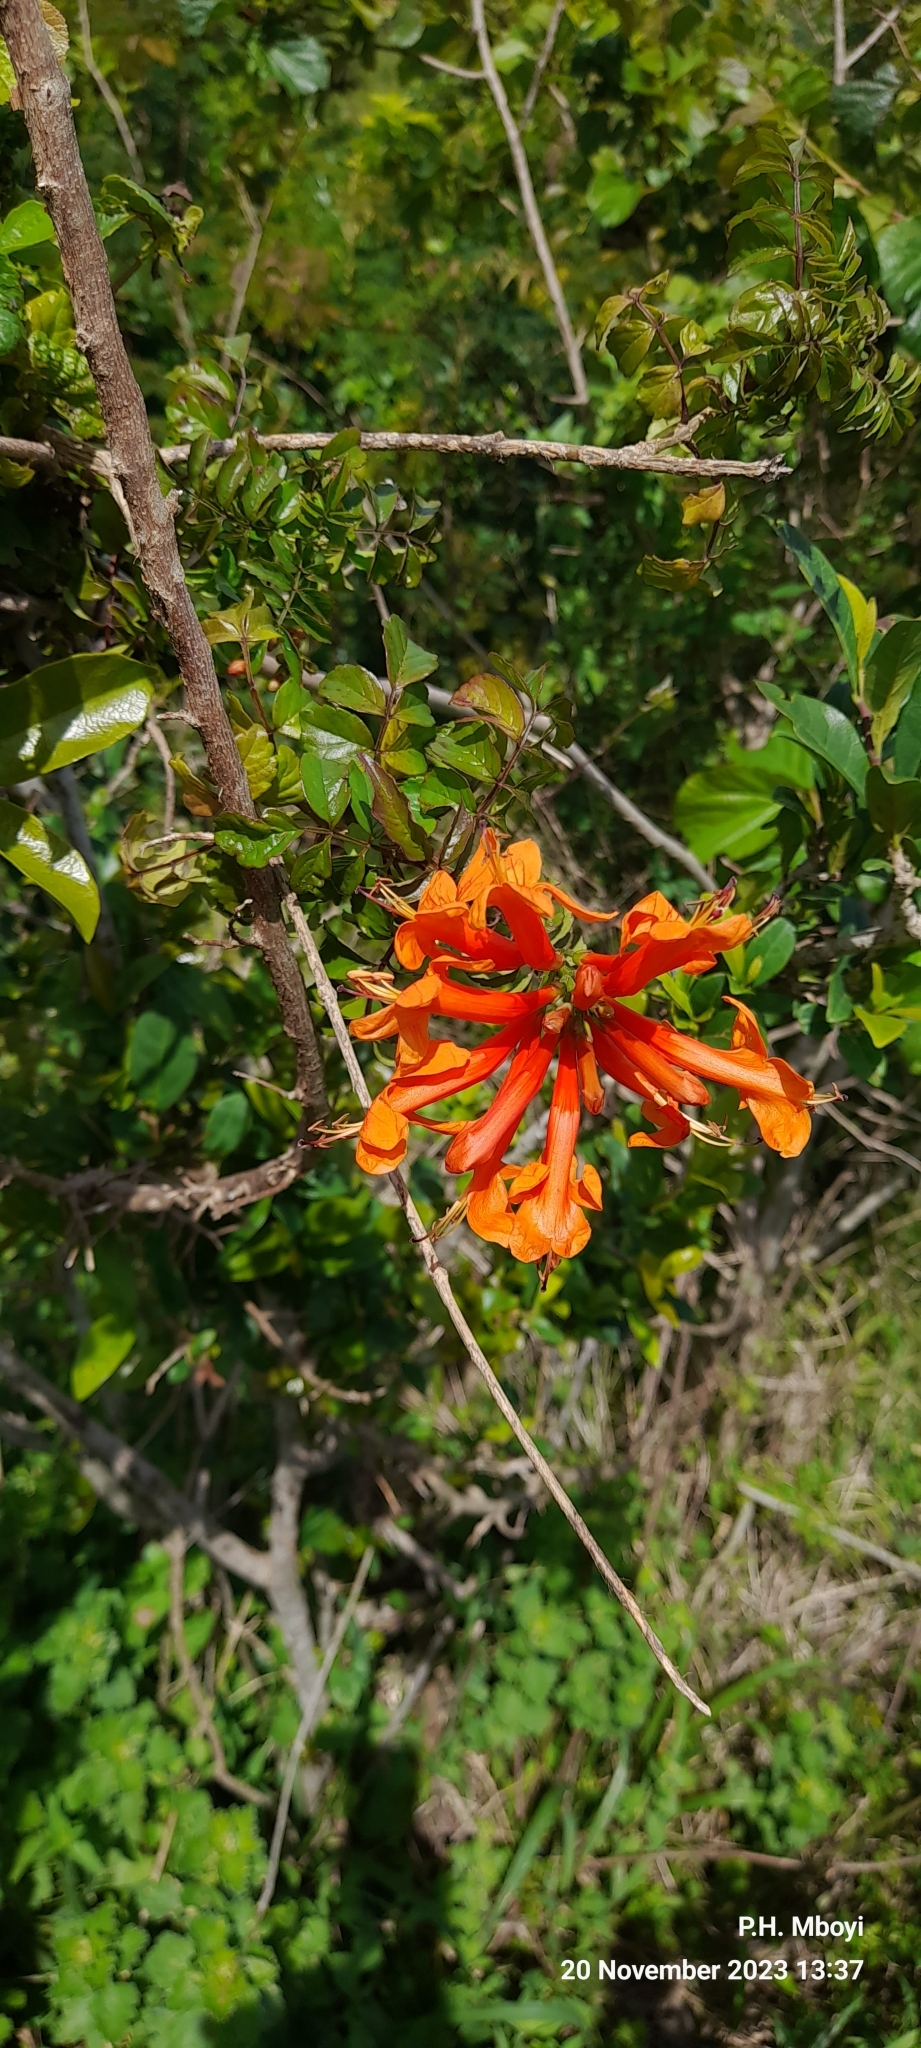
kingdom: Plantae
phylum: Tracheophyta
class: Magnoliopsida
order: Lamiales
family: Bignoniaceae
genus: Tecomaria
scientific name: Tecomaria capensis
